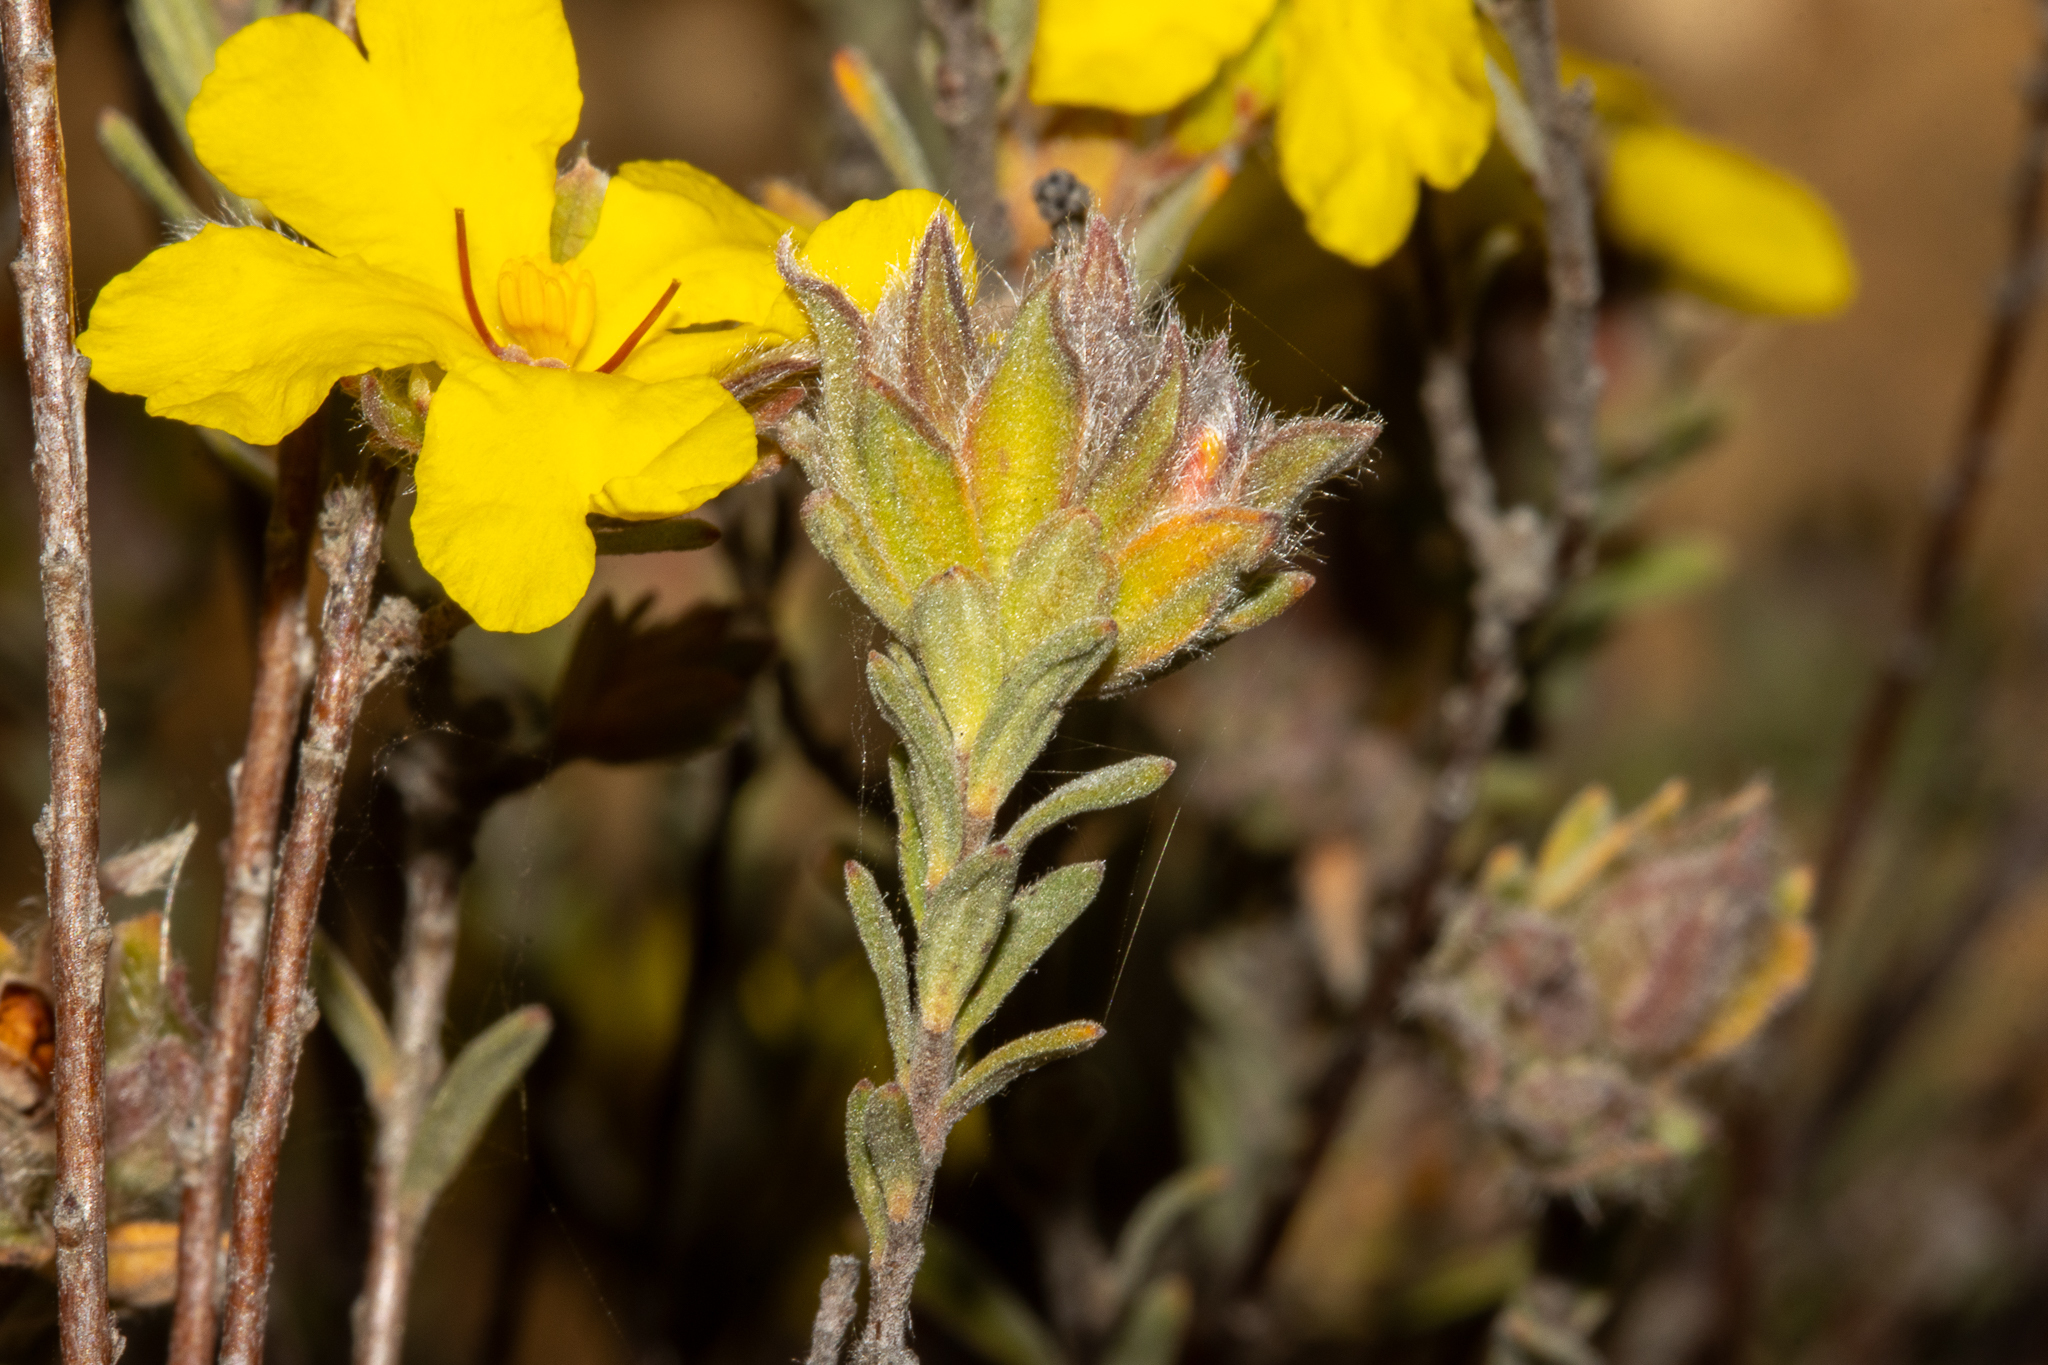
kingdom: Plantae
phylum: Tracheophyta
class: Magnoliopsida
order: Dilleniales
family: Dilleniaceae
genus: Hibbertia
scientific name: Hibbertia crinita
